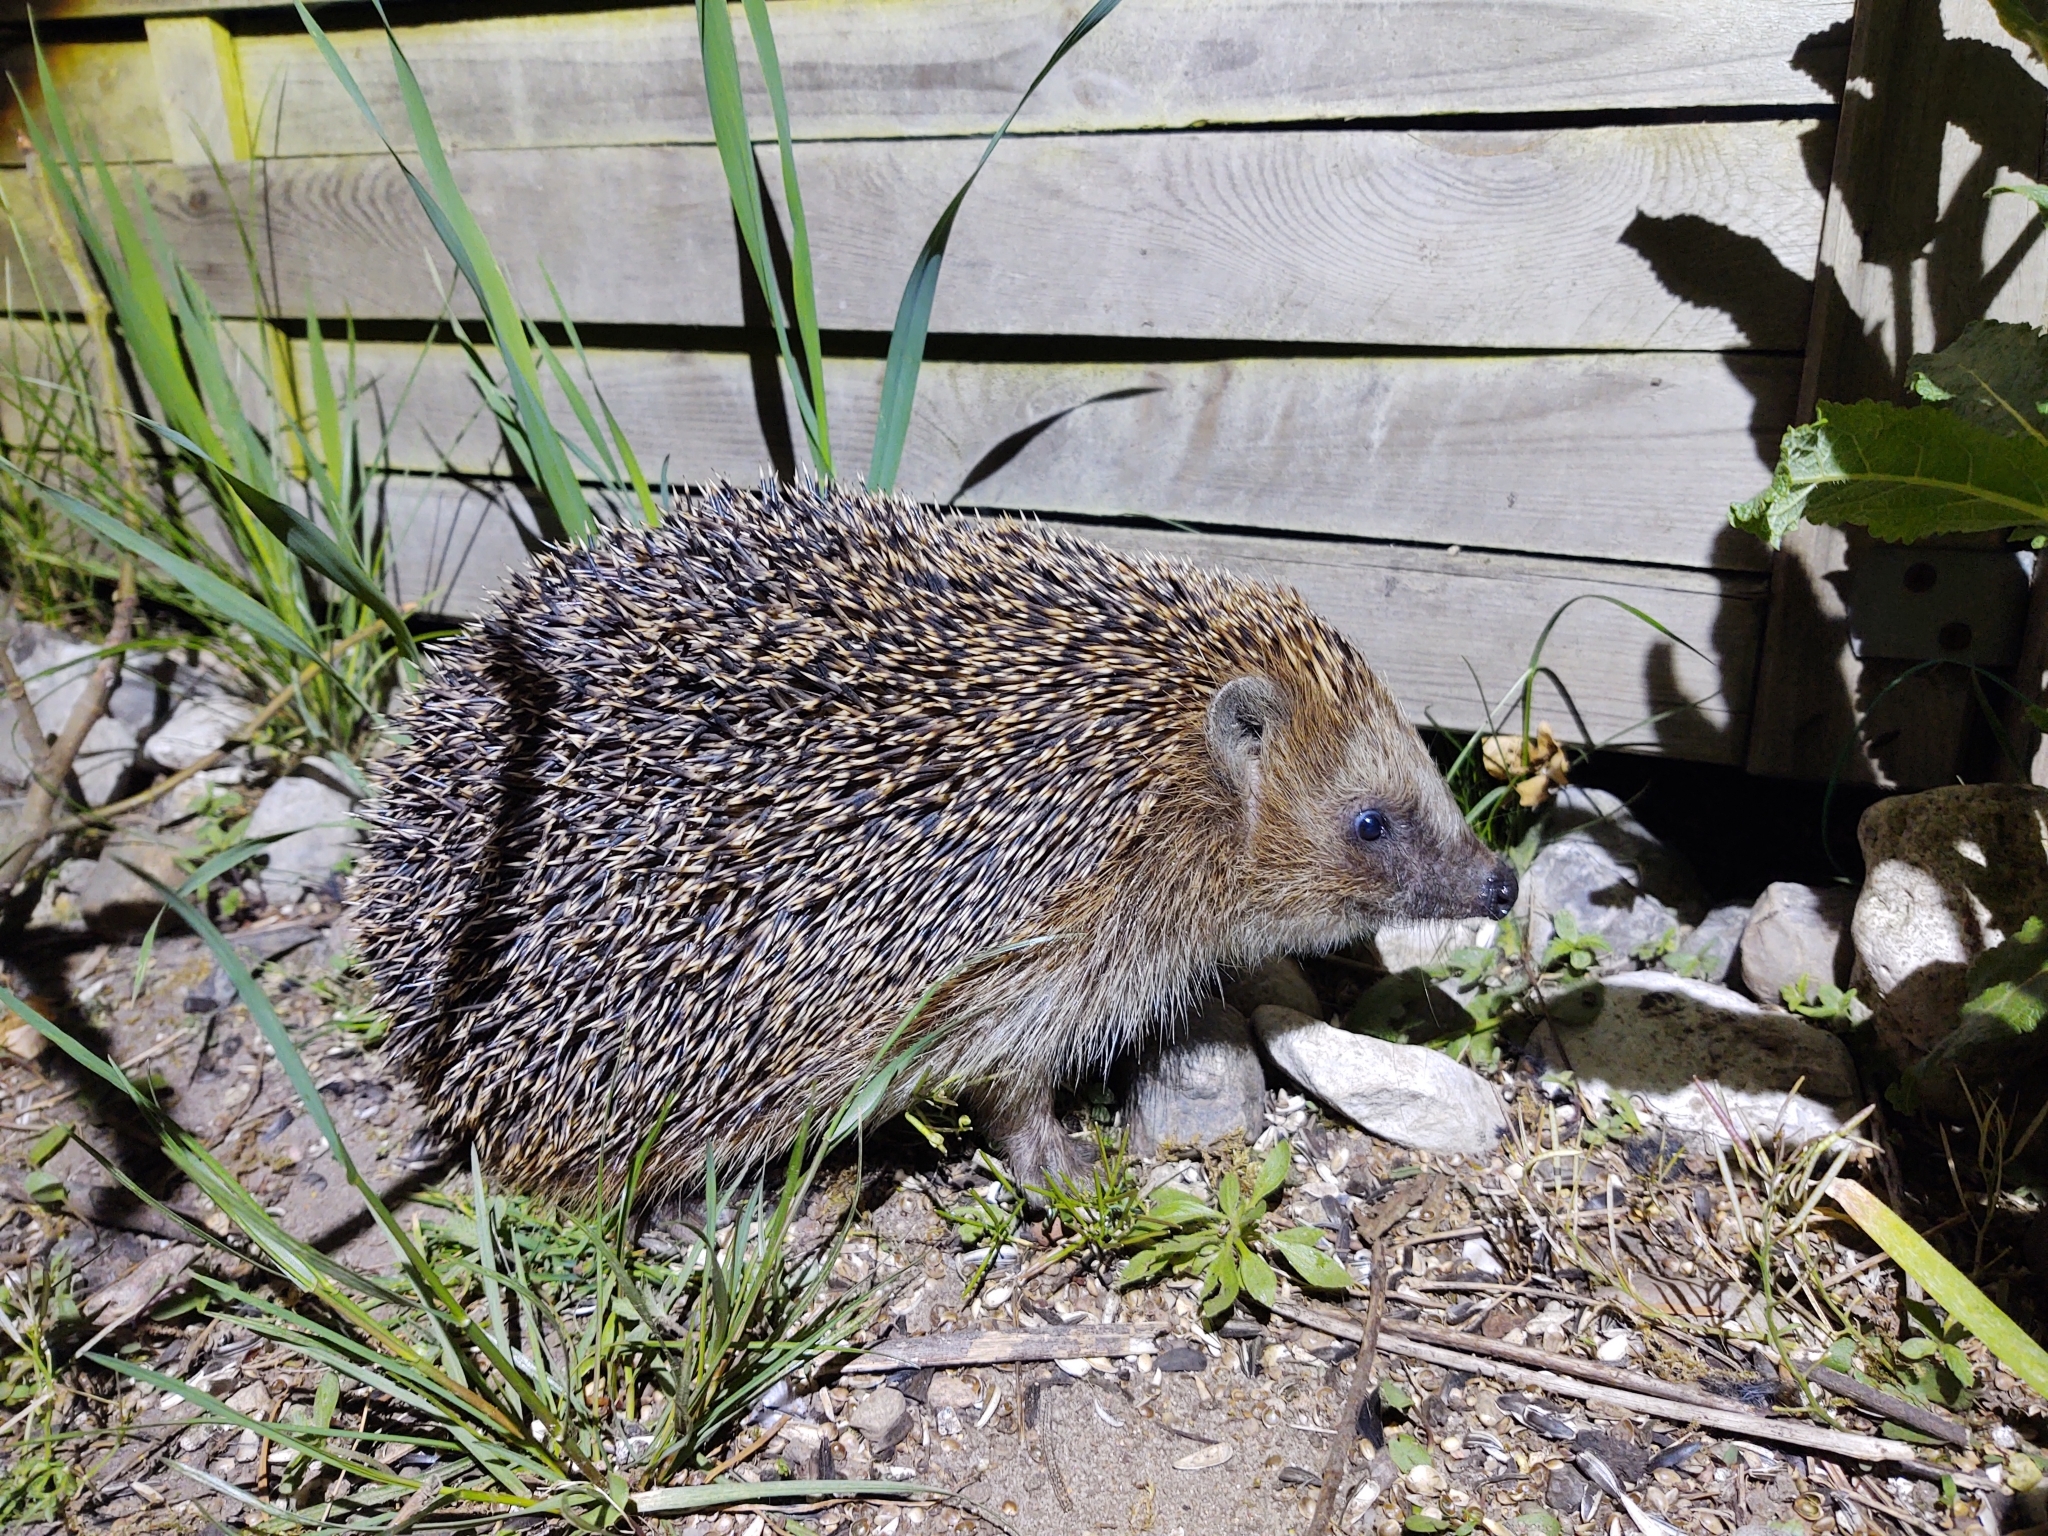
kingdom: Animalia
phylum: Chordata
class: Mammalia
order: Erinaceomorpha
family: Erinaceidae
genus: Erinaceus
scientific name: Erinaceus europaeus
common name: West european hedgehog
